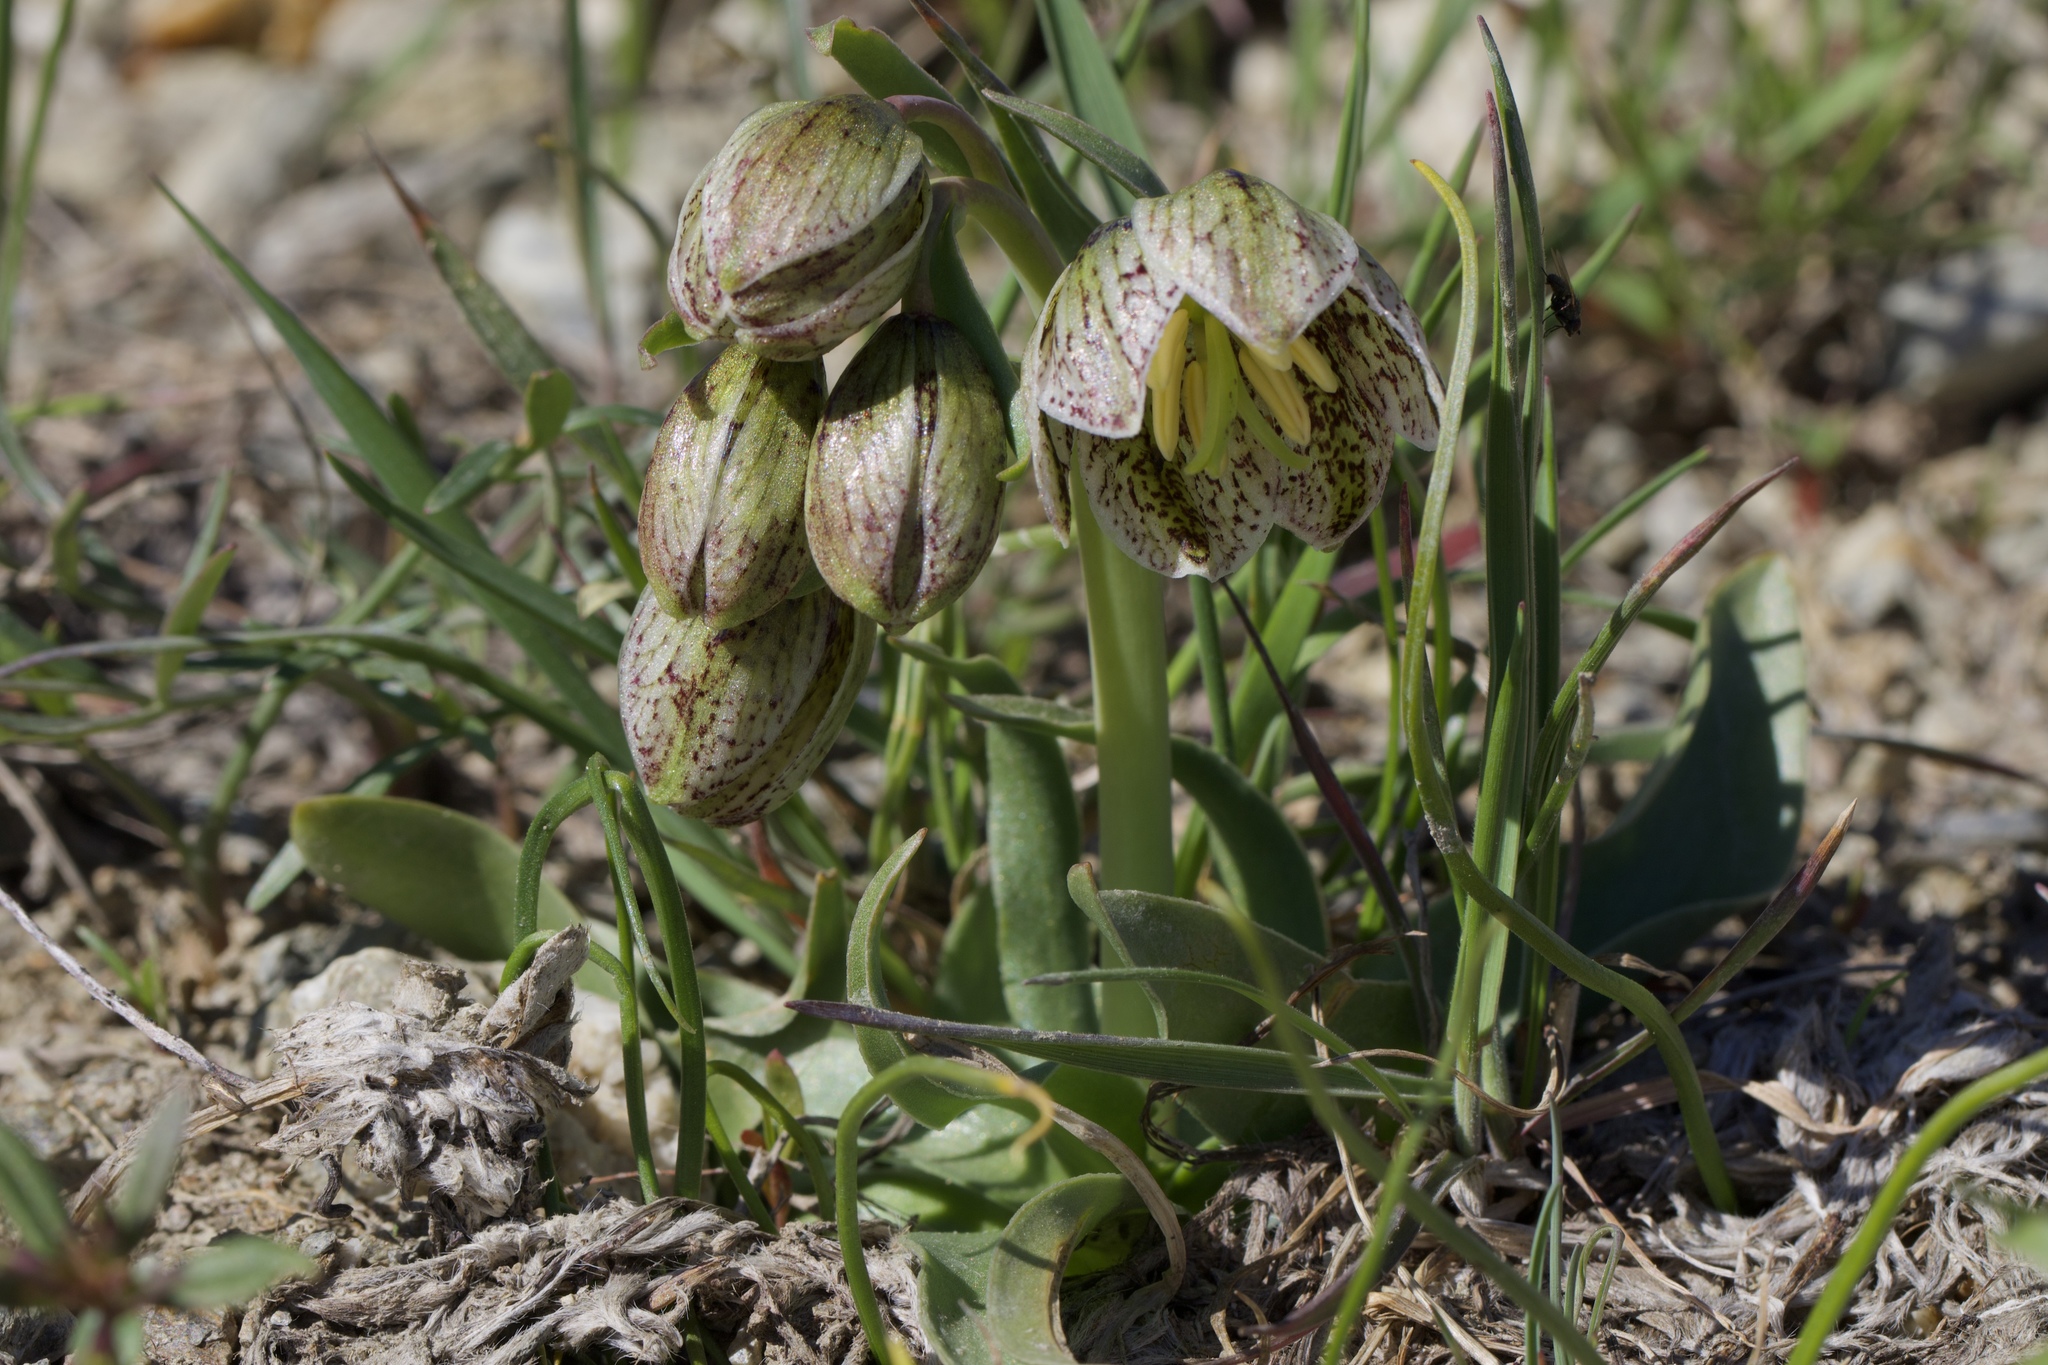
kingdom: Plantae
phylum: Tracheophyta
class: Liliopsida
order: Liliales
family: Liliaceae
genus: Fritillaria
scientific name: Fritillaria purdyi
